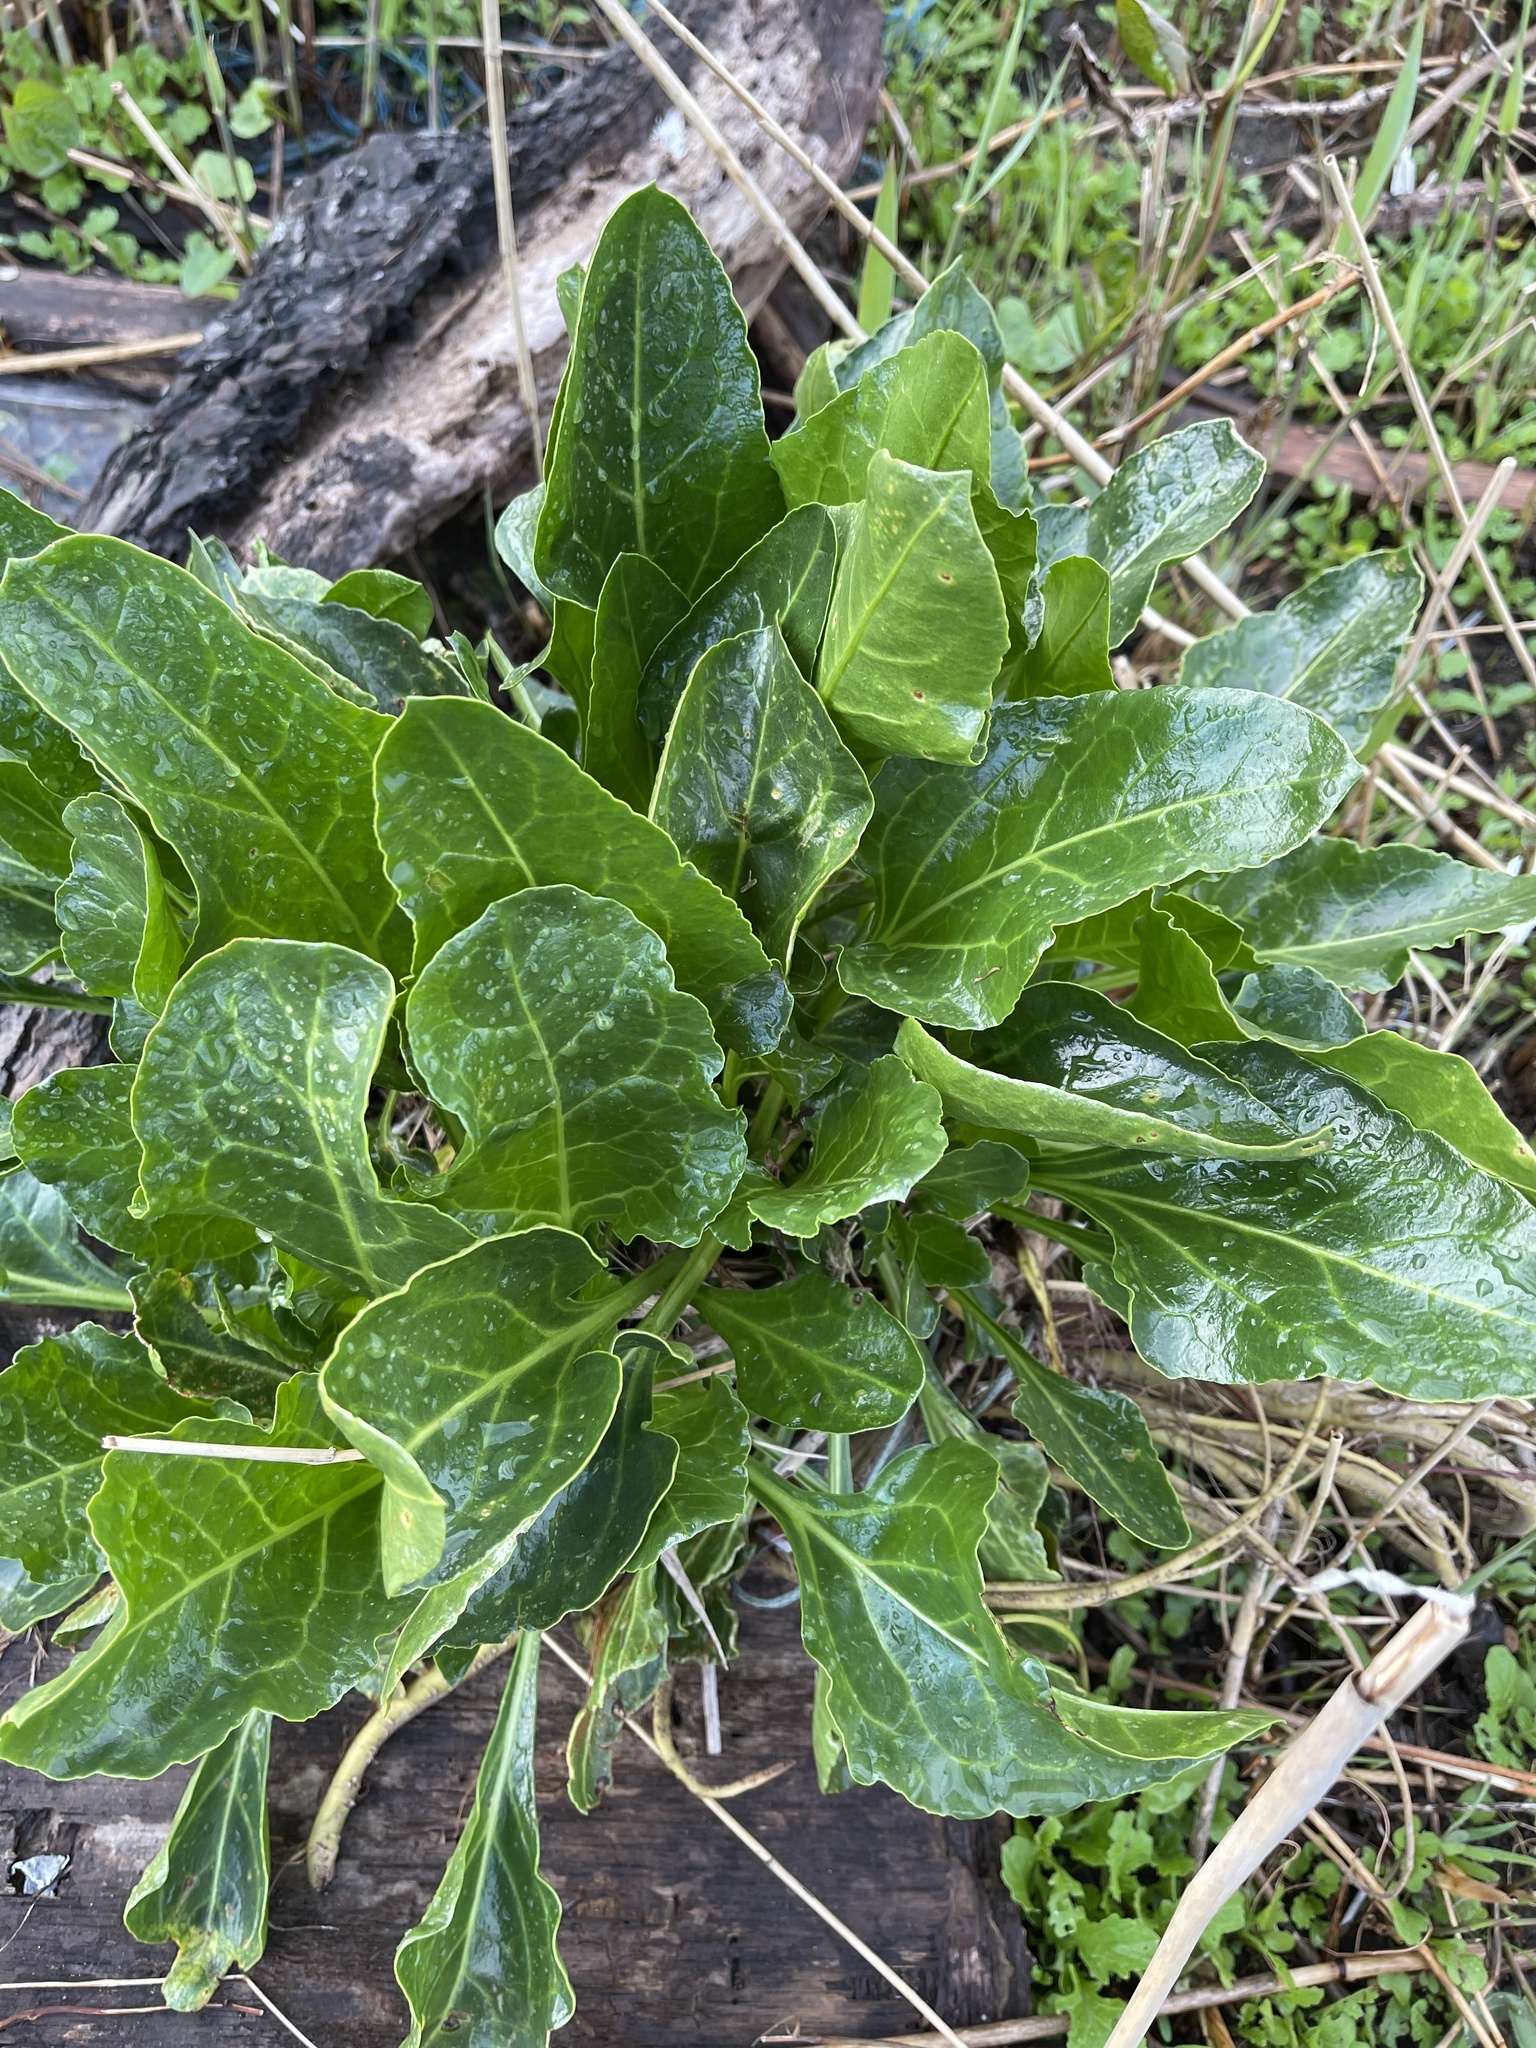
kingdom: Plantae
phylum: Tracheophyta
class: Magnoliopsida
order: Caryophyllales
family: Amaranthaceae
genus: Beta
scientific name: Beta vulgaris
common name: Beet
